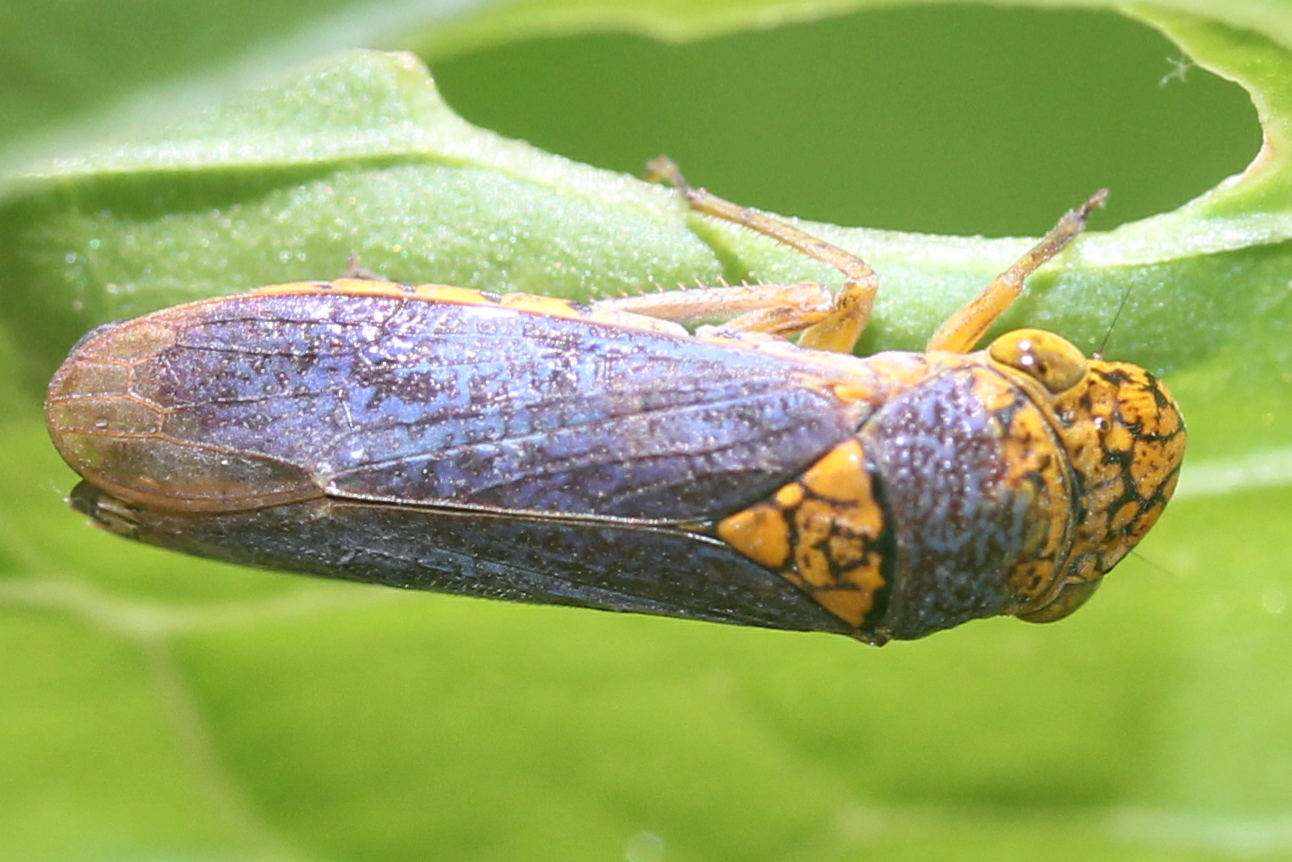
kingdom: Animalia
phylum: Arthropoda
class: Insecta
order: Hemiptera
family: Cicadellidae
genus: Oncometopia
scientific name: Oncometopia orbona
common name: Broad-headed sharpshooter
